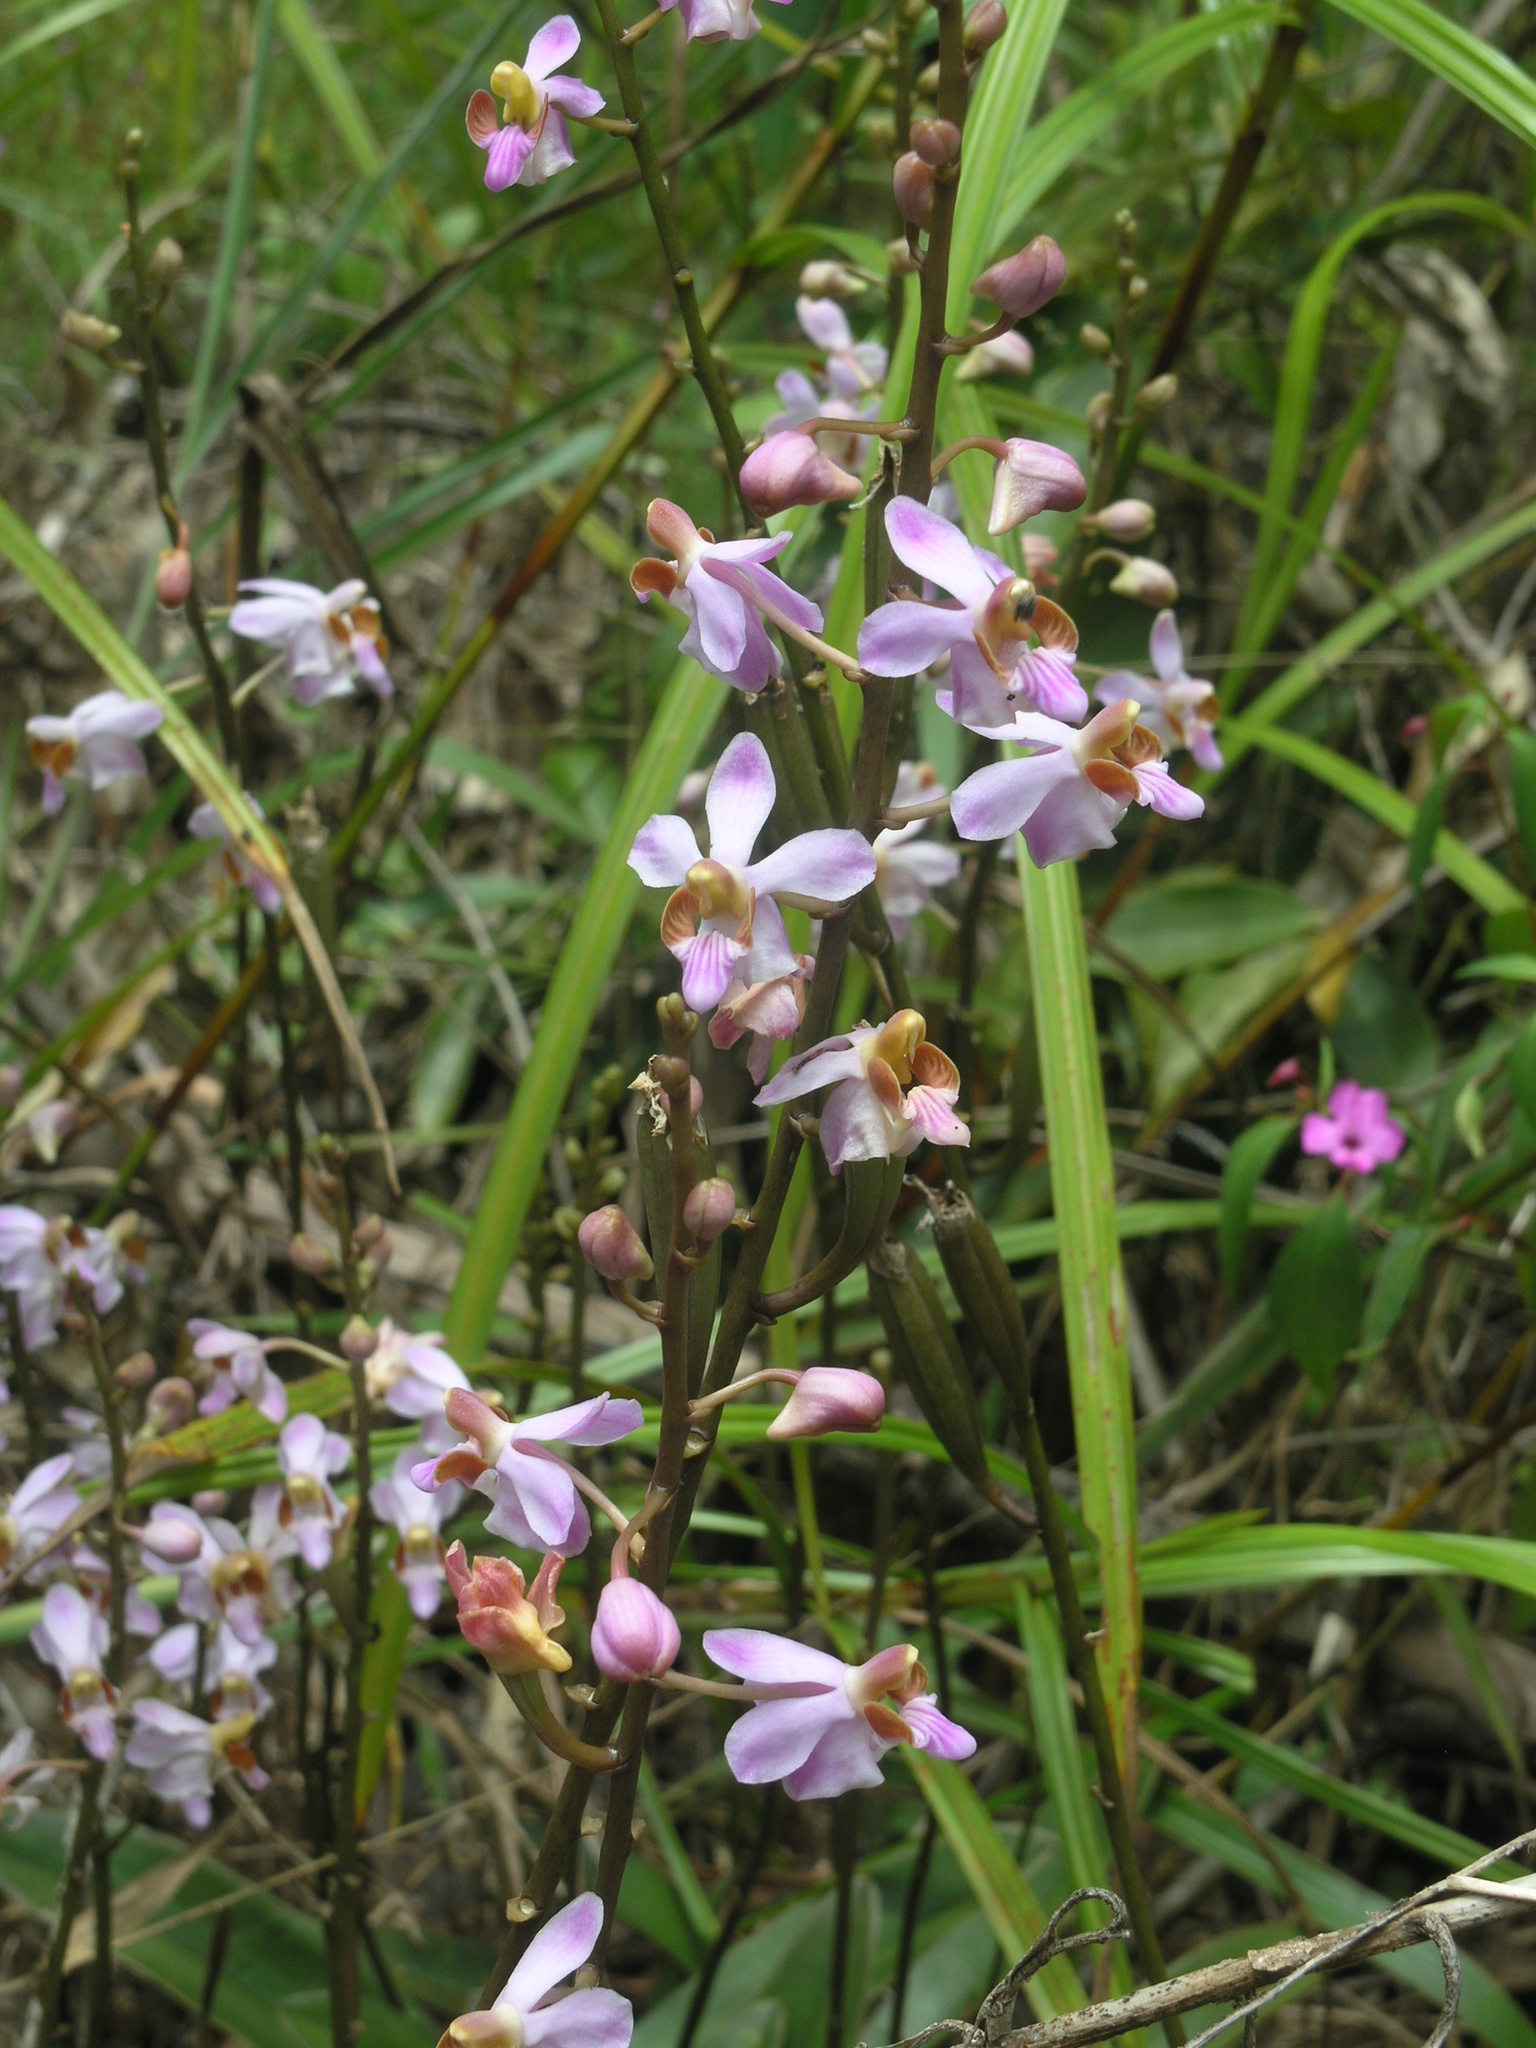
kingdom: Plantae
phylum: Tracheophyta
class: Liliopsida
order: Asparagales
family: Orchidaceae
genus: Phalaenopsis
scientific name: Phalaenopsis pulcherrima
